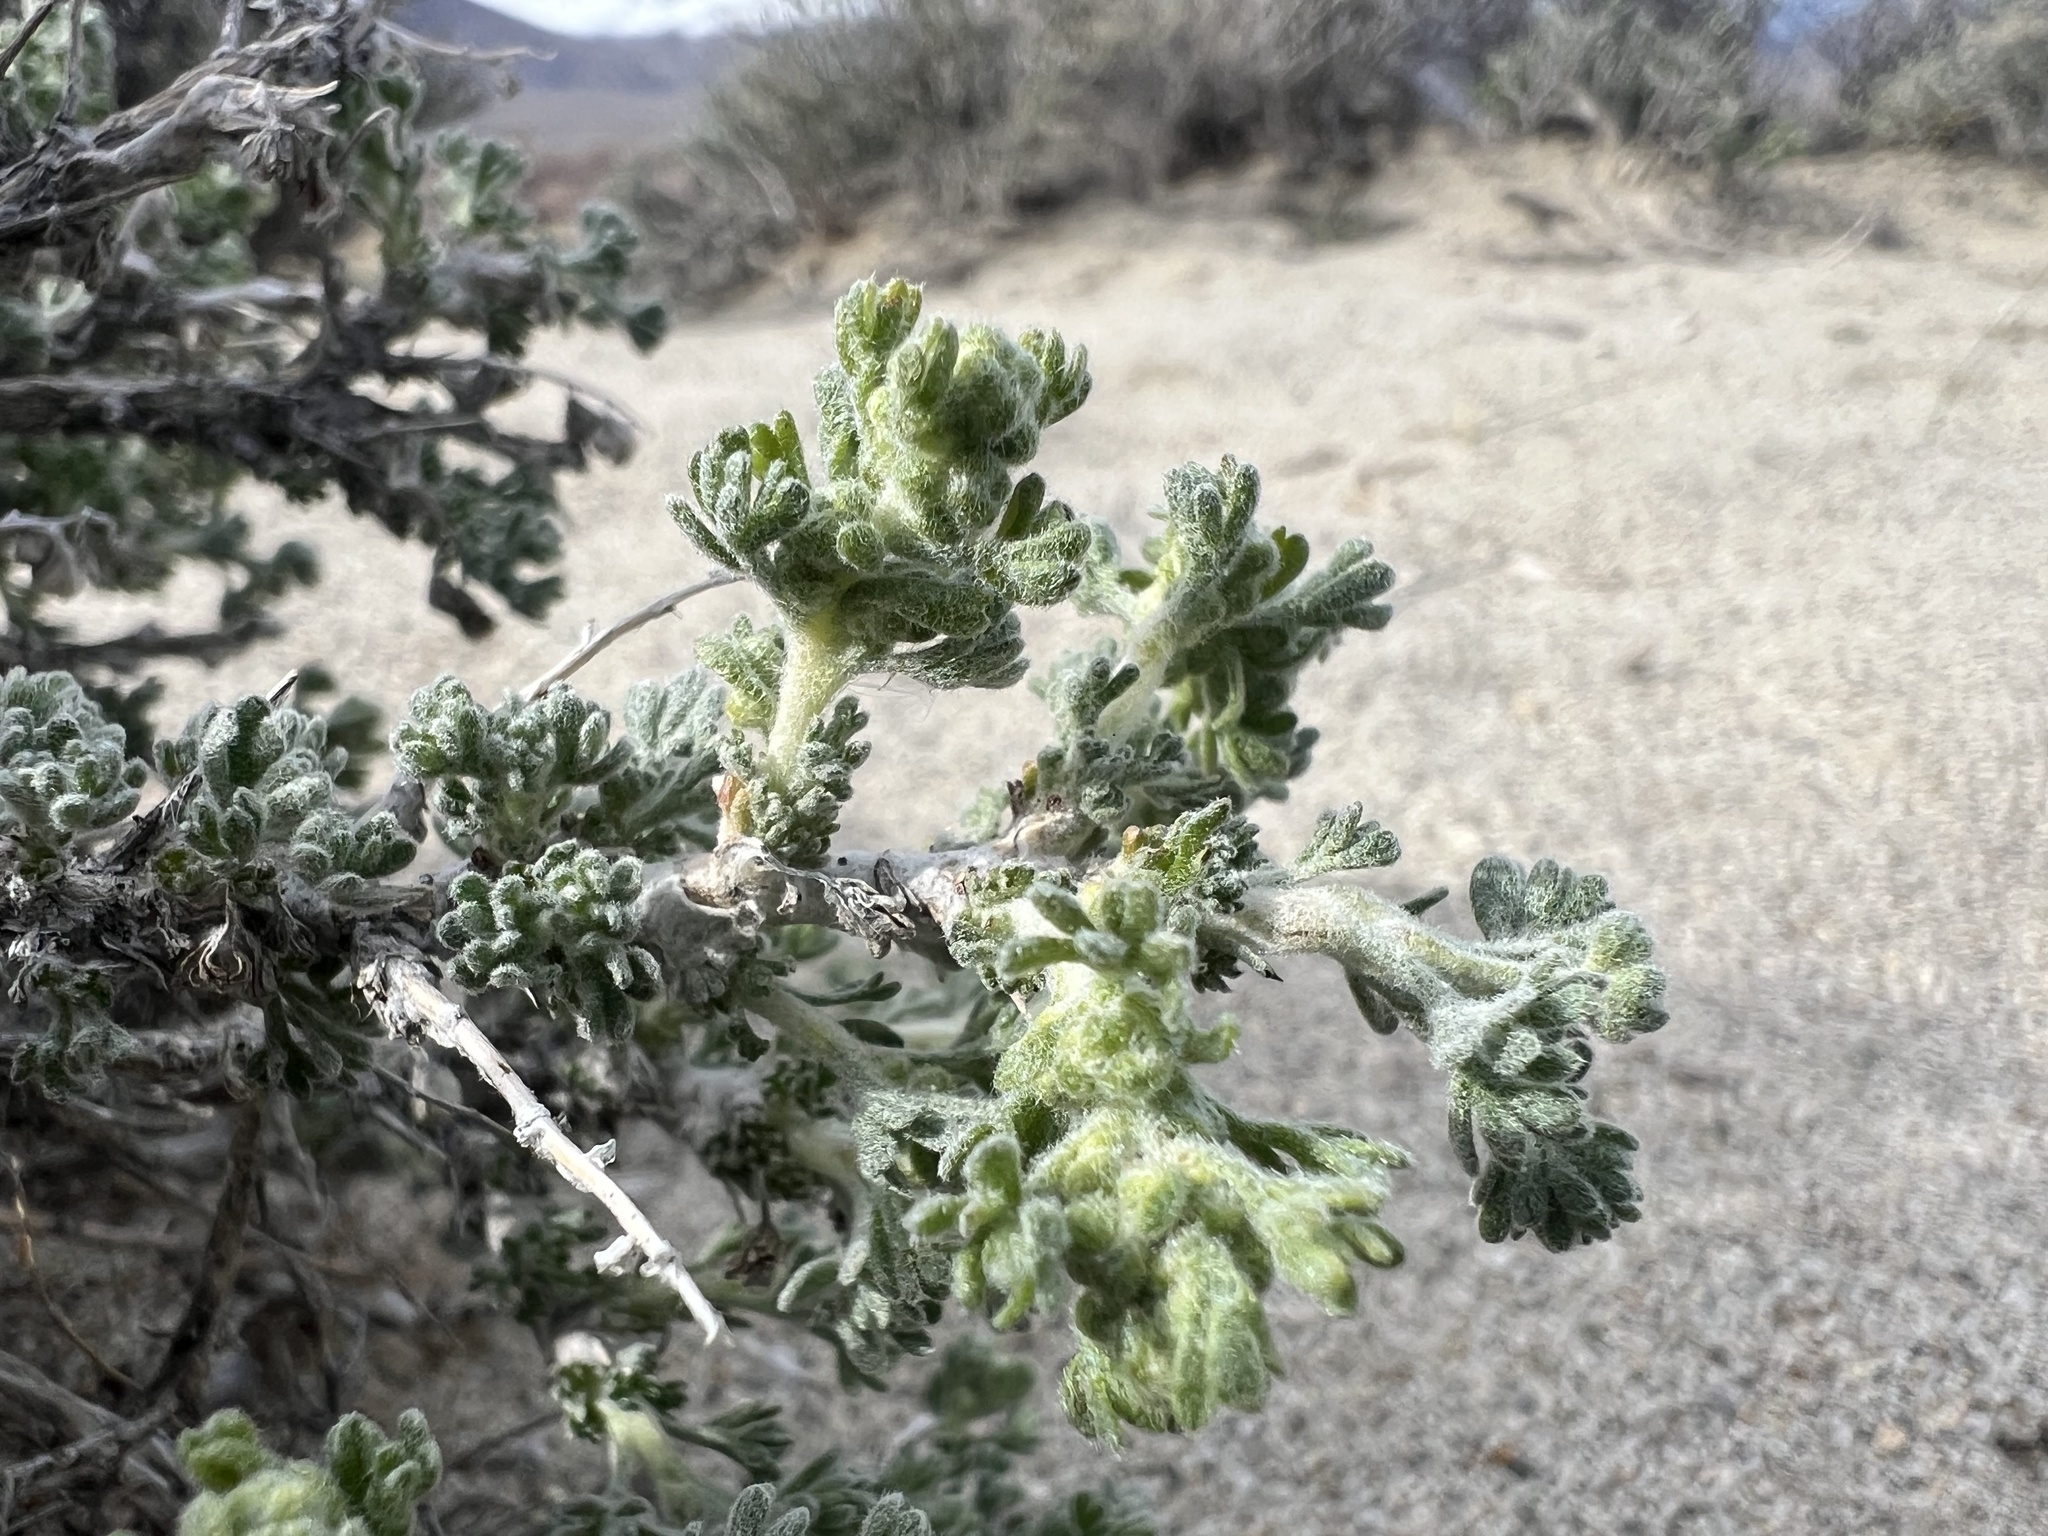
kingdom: Plantae
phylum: Tracheophyta
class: Magnoliopsida
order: Asterales
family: Asteraceae
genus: Artemisia
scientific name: Artemisia spinescens
